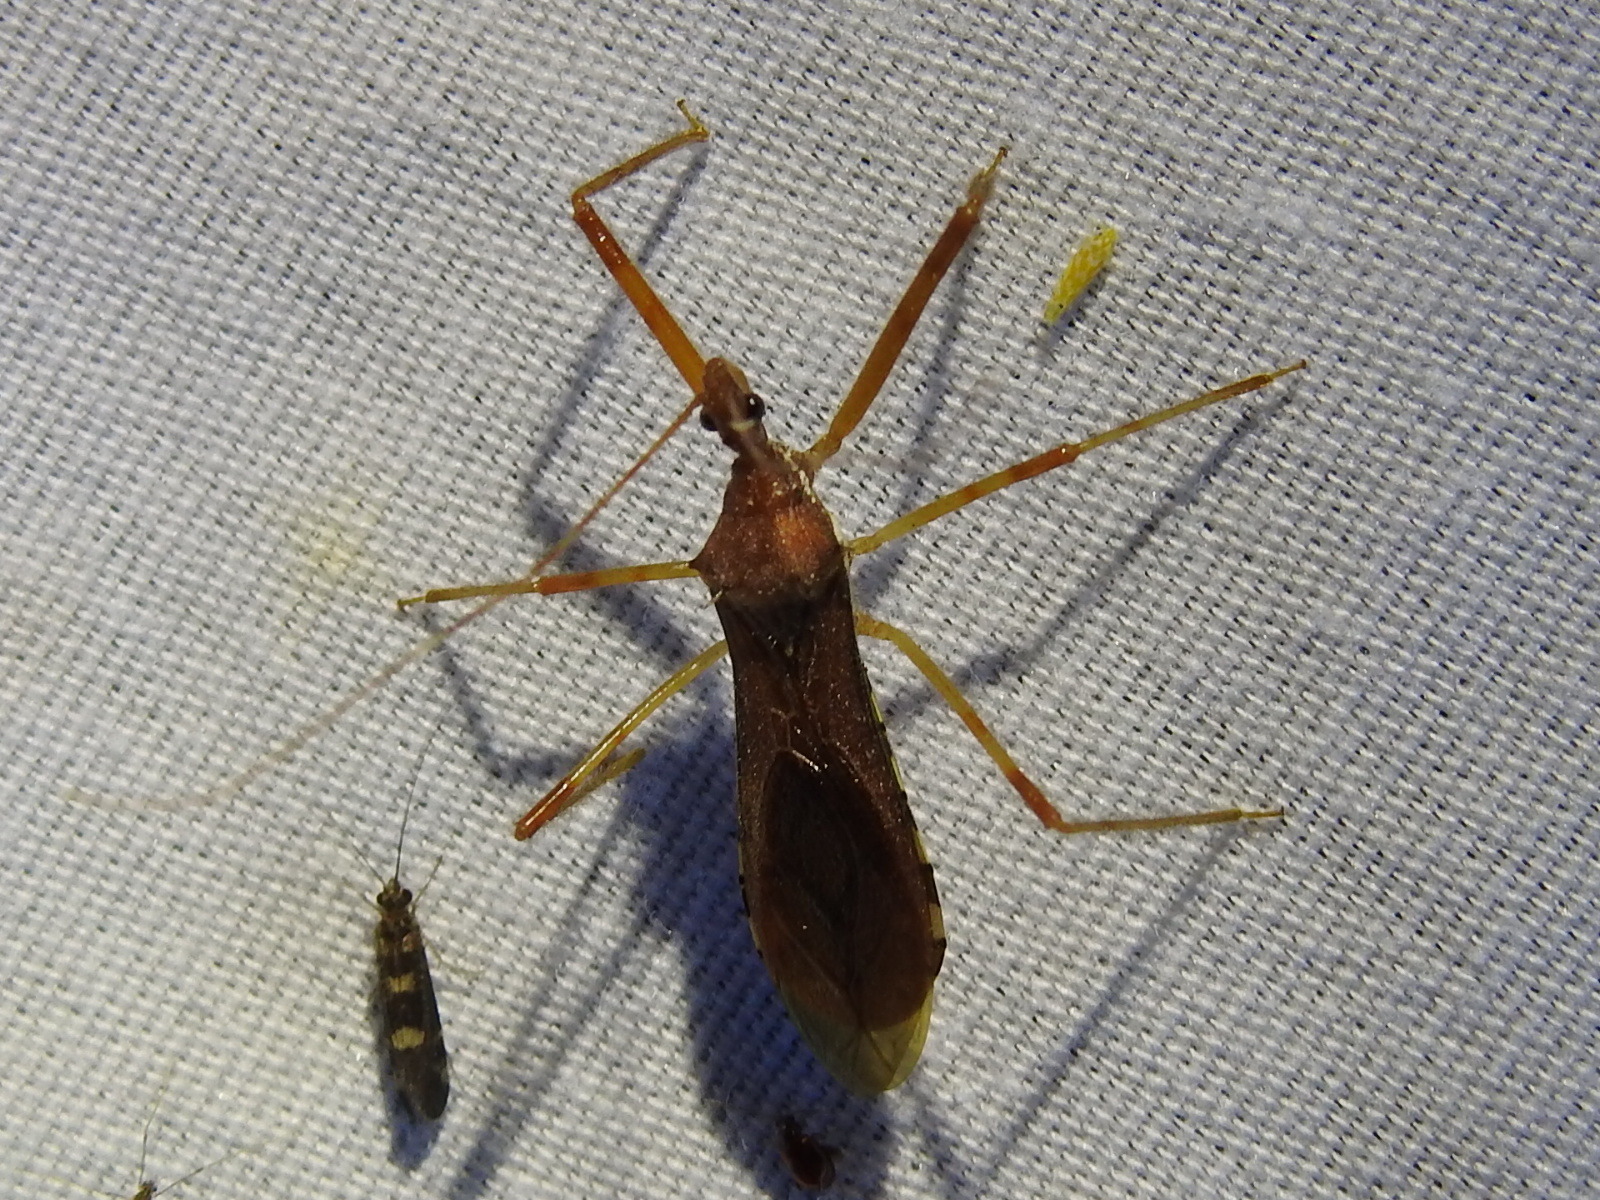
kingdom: Animalia
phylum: Arthropoda
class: Insecta
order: Hemiptera
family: Reduviidae
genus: Rocconota
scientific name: Rocconota annulicornis
